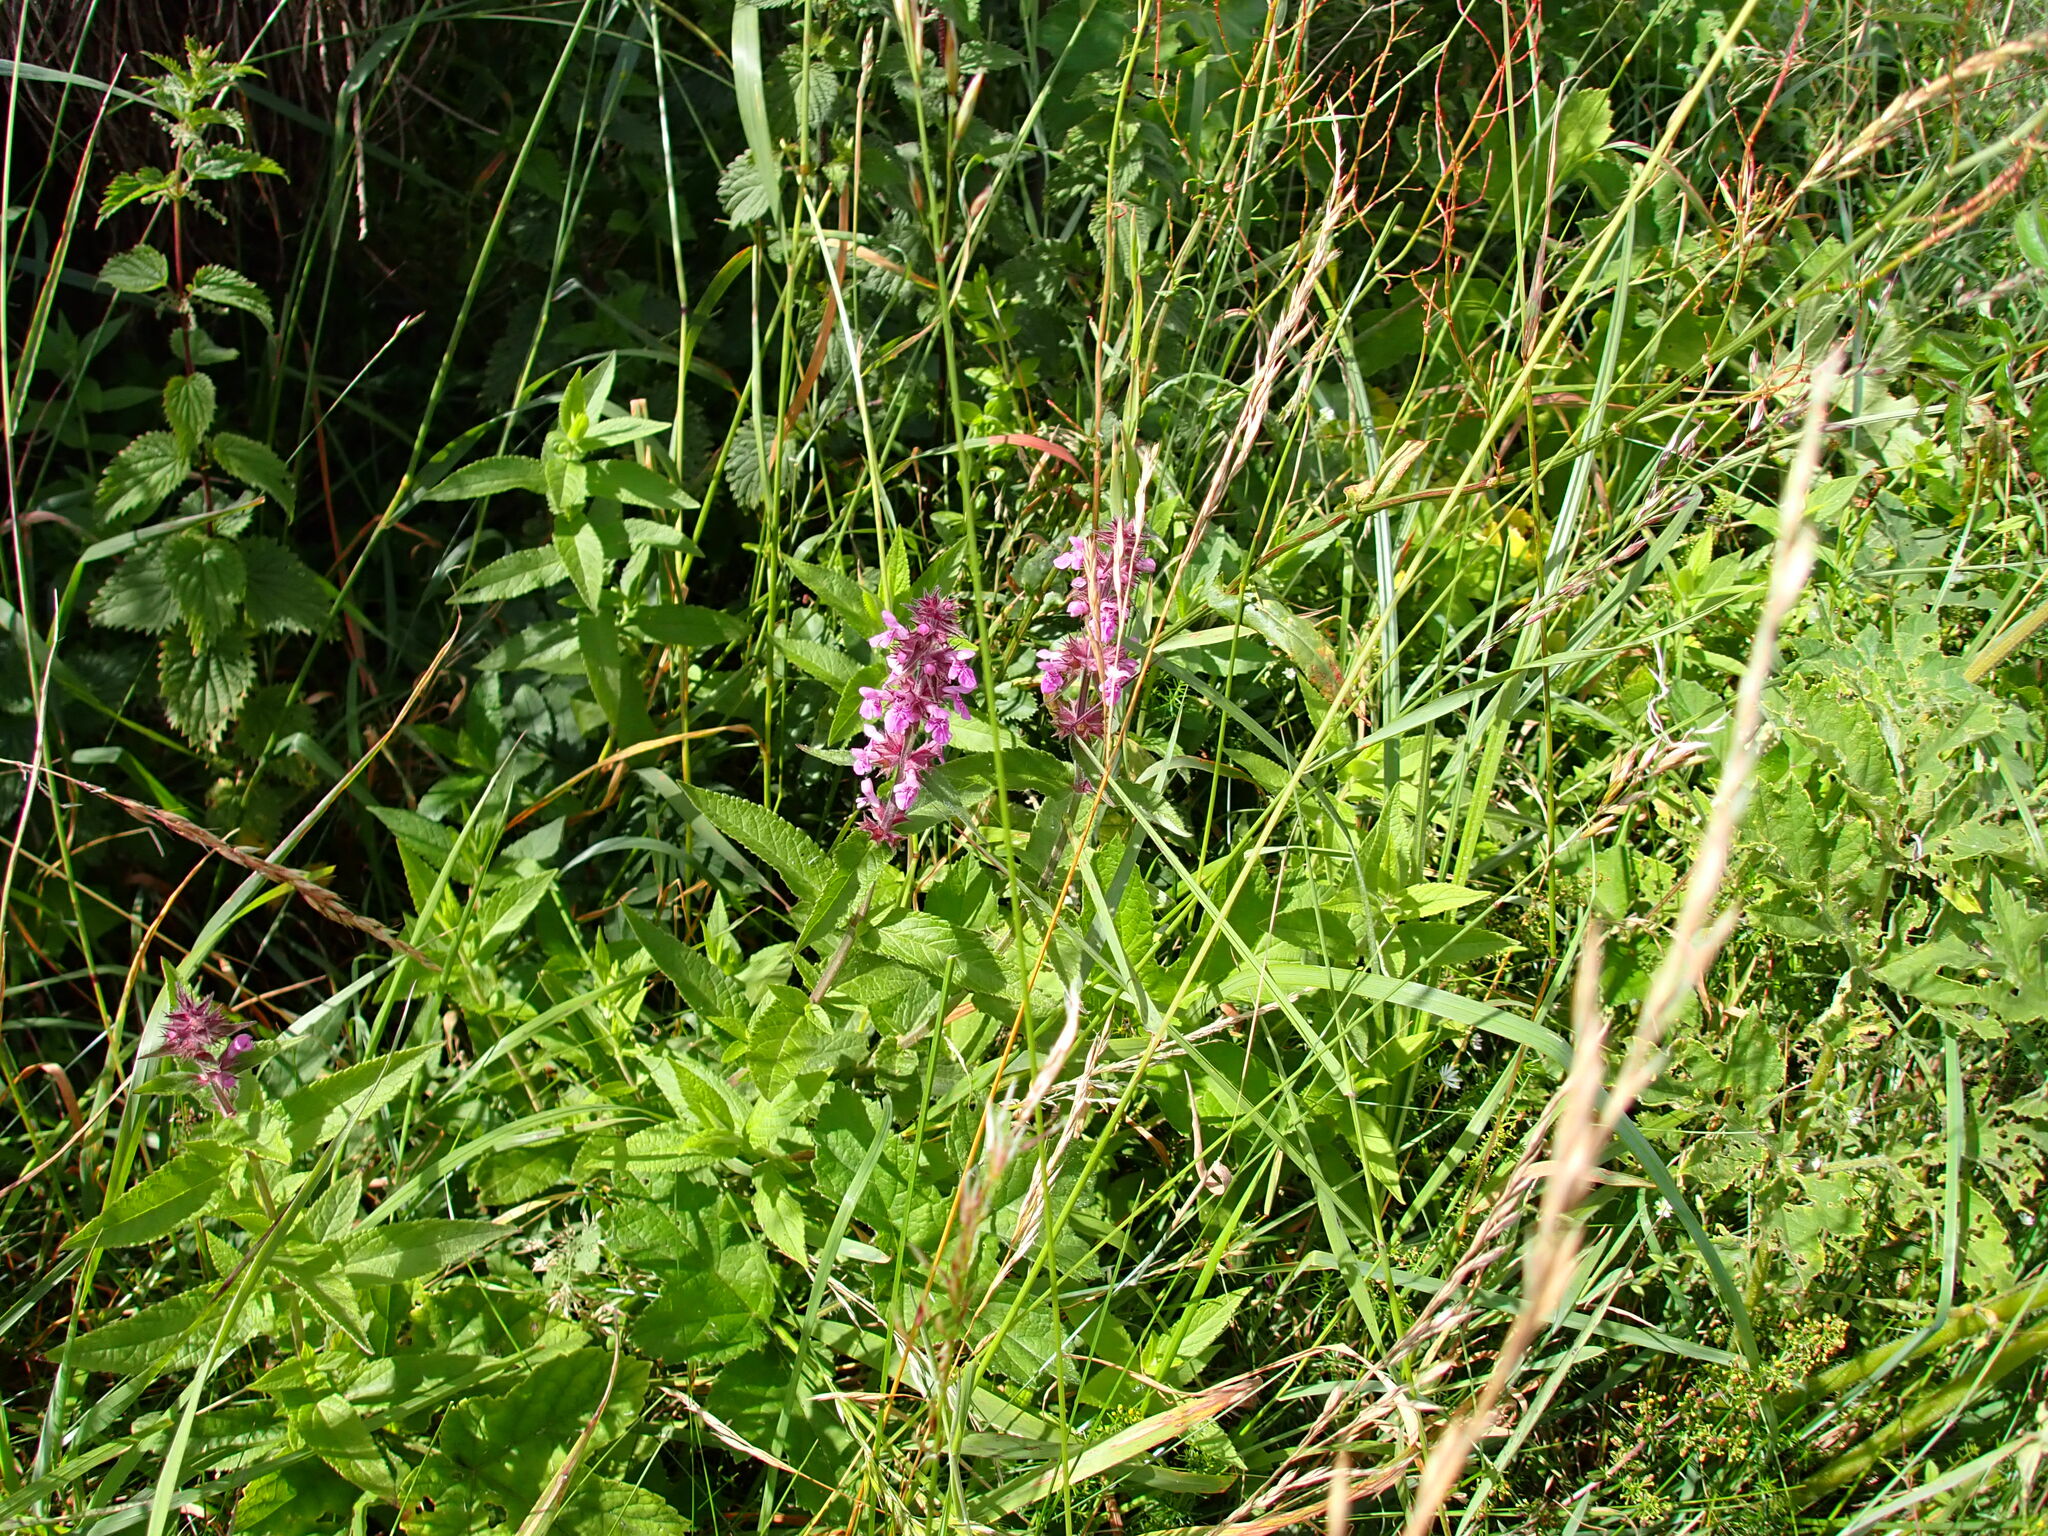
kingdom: Plantae
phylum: Tracheophyta
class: Magnoliopsida
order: Lamiales
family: Lamiaceae
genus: Stachys
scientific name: Stachys palustris
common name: Marsh woundwort
